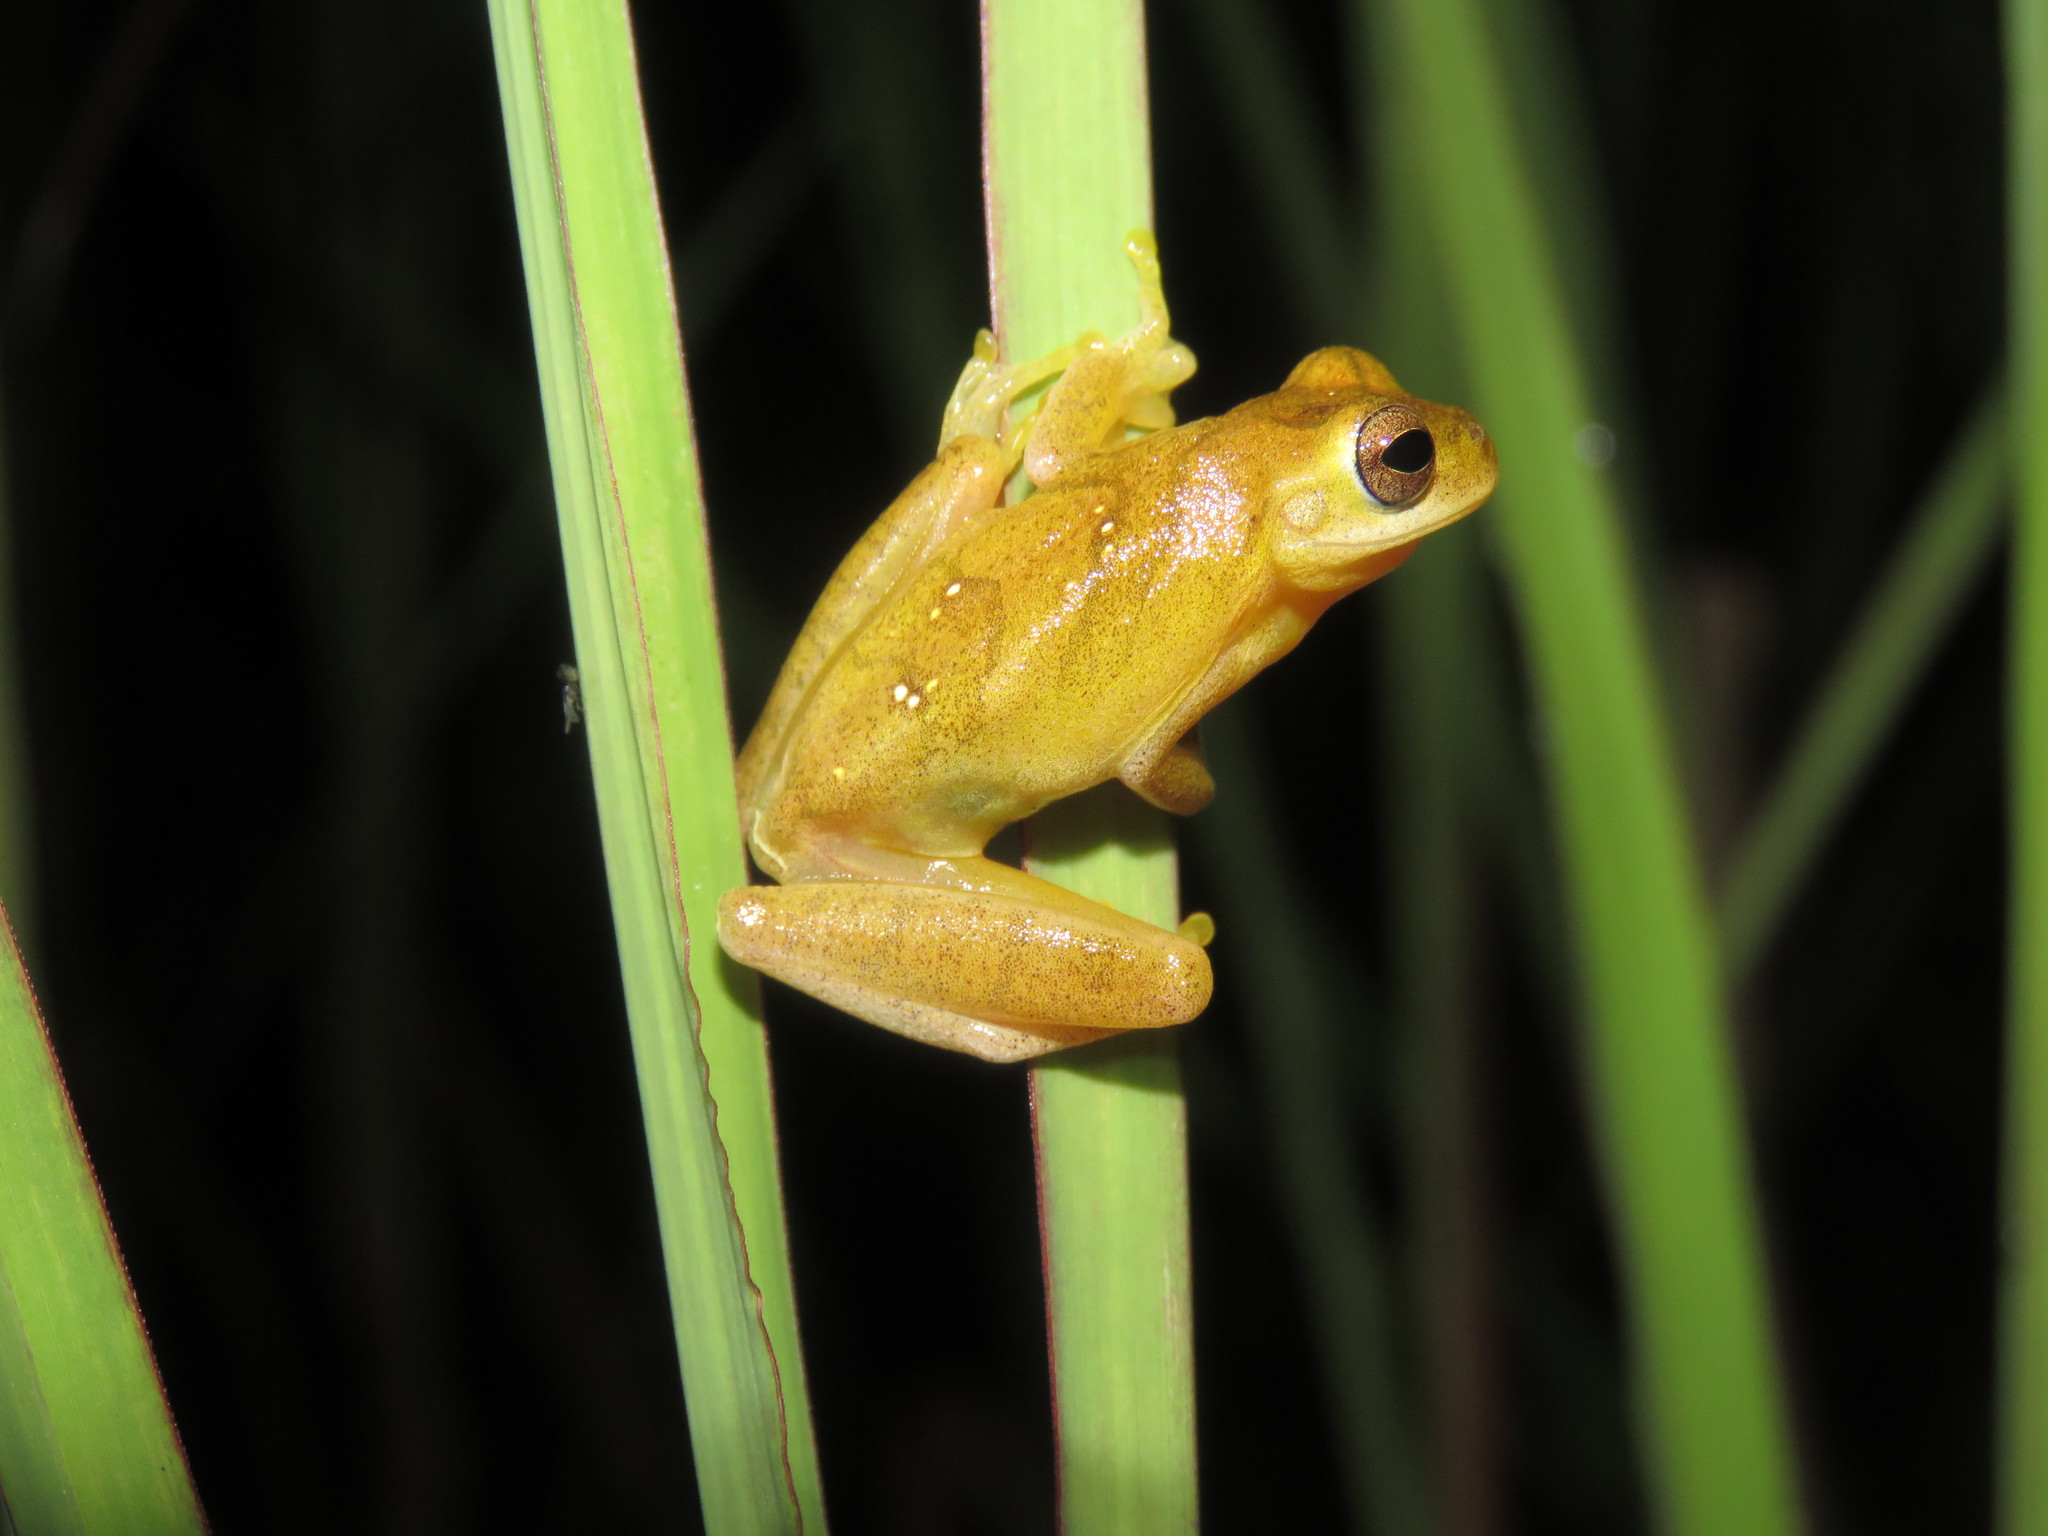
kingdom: Animalia
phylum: Chordata
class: Amphibia
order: Anura
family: Hylidae
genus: Dendropsophus
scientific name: Dendropsophus minutus
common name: Lesser treefrog
